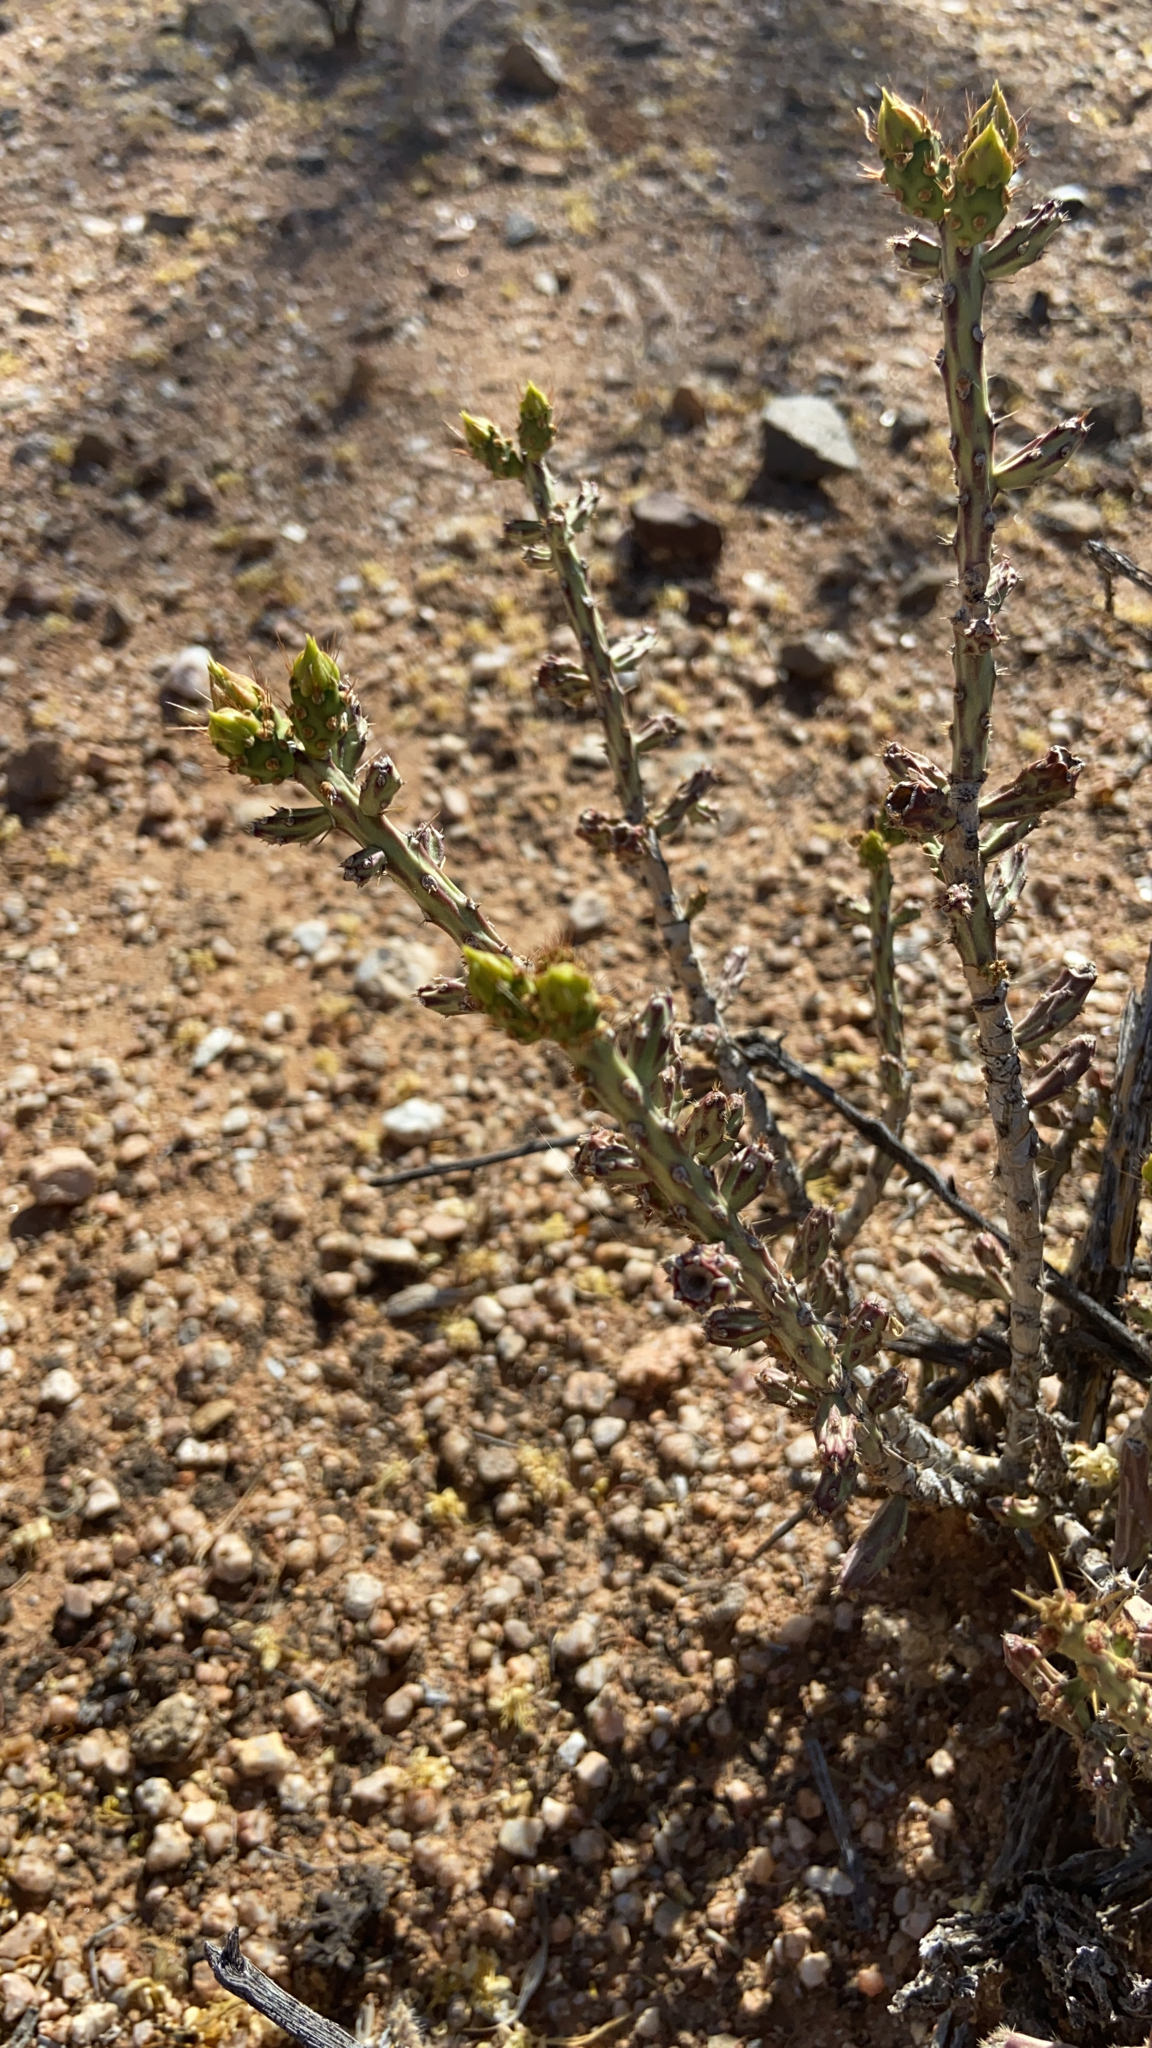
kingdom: Plantae
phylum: Tracheophyta
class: Magnoliopsida
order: Caryophyllales
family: Cactaceae
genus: Cylindropuntia
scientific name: Cylindropuntia leptocaulis
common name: Christmas cactus
